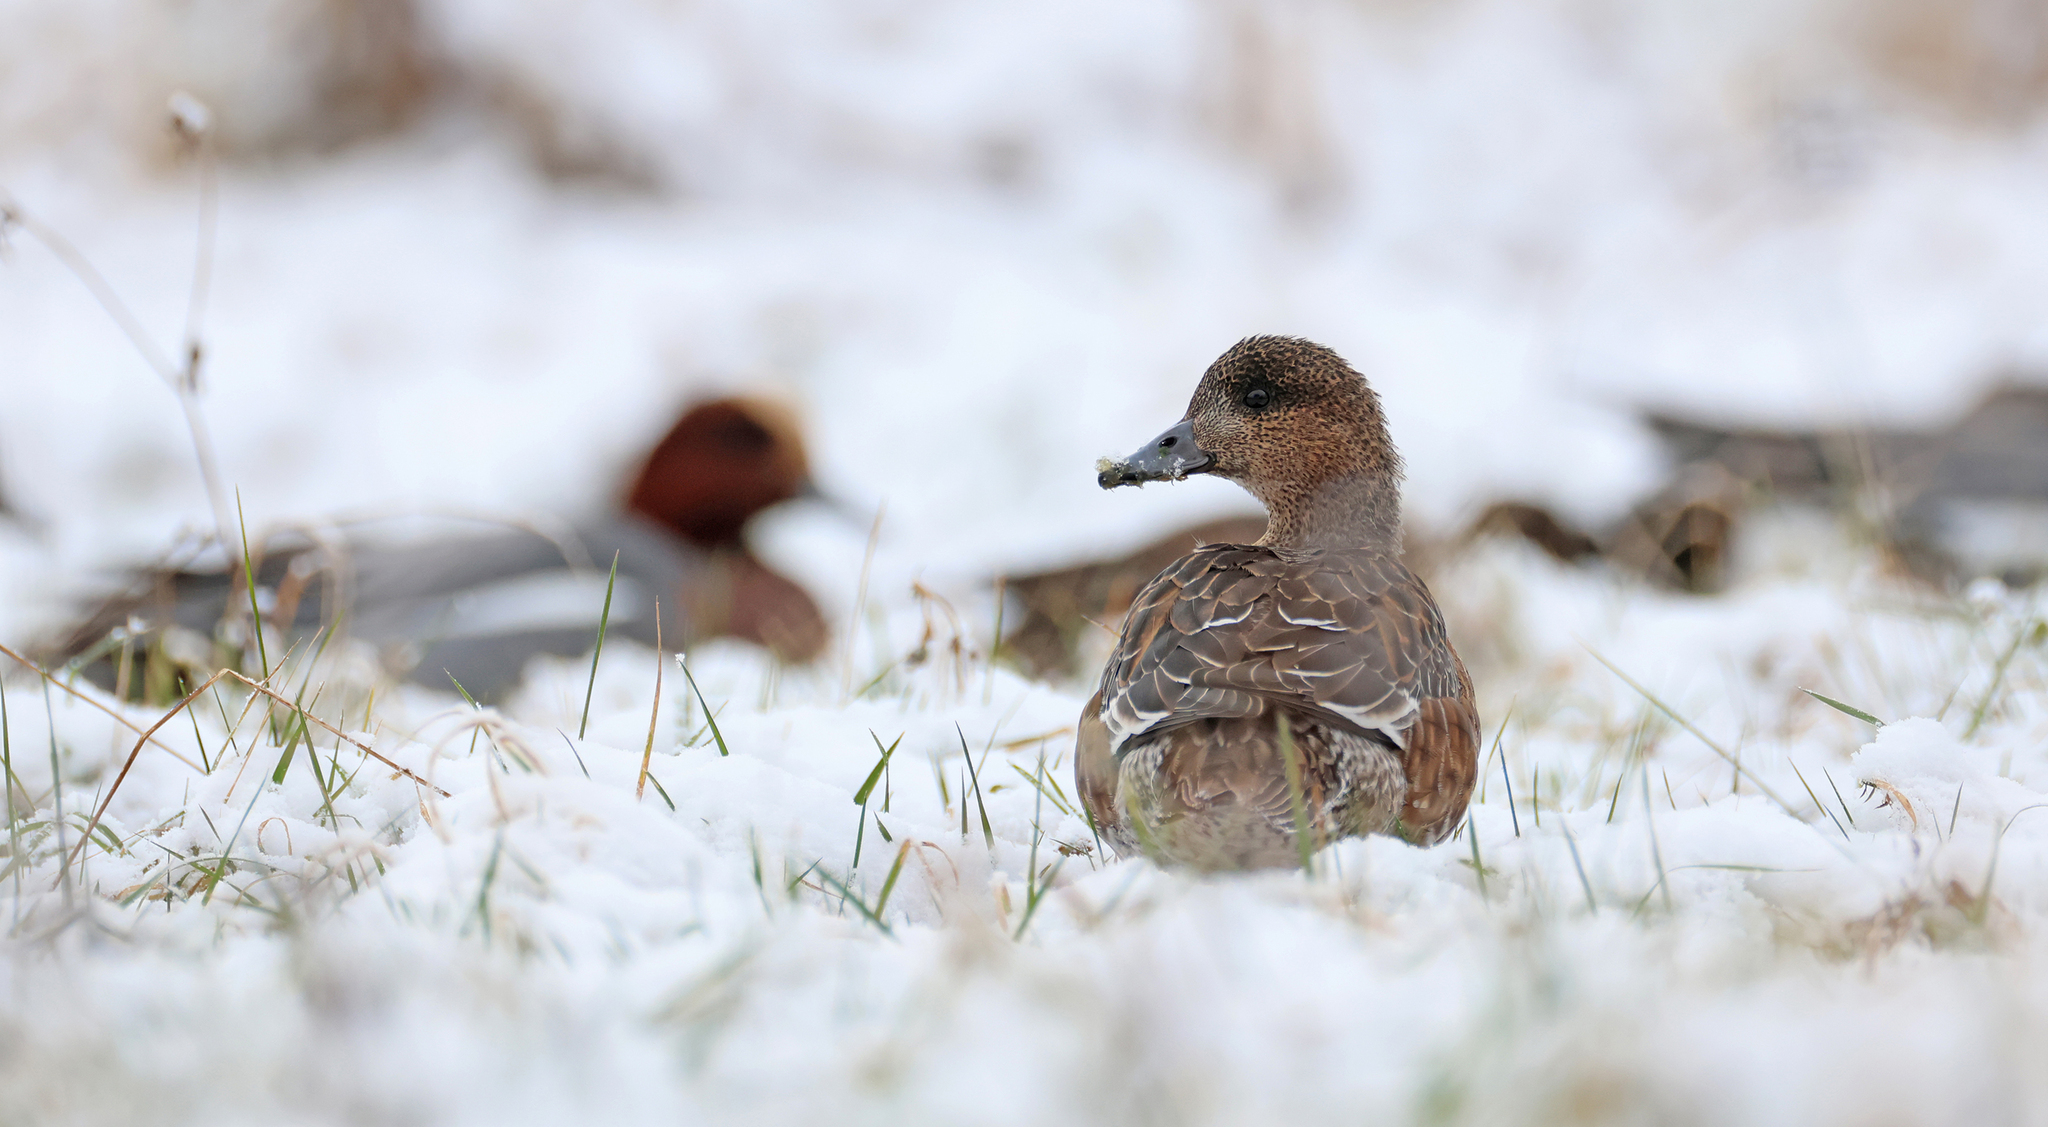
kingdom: Animalia
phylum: Chordata
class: Aves
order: Anseriformes
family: Anatidae
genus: Mareca
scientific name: Mareca penelope
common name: Eurasian wigeon
